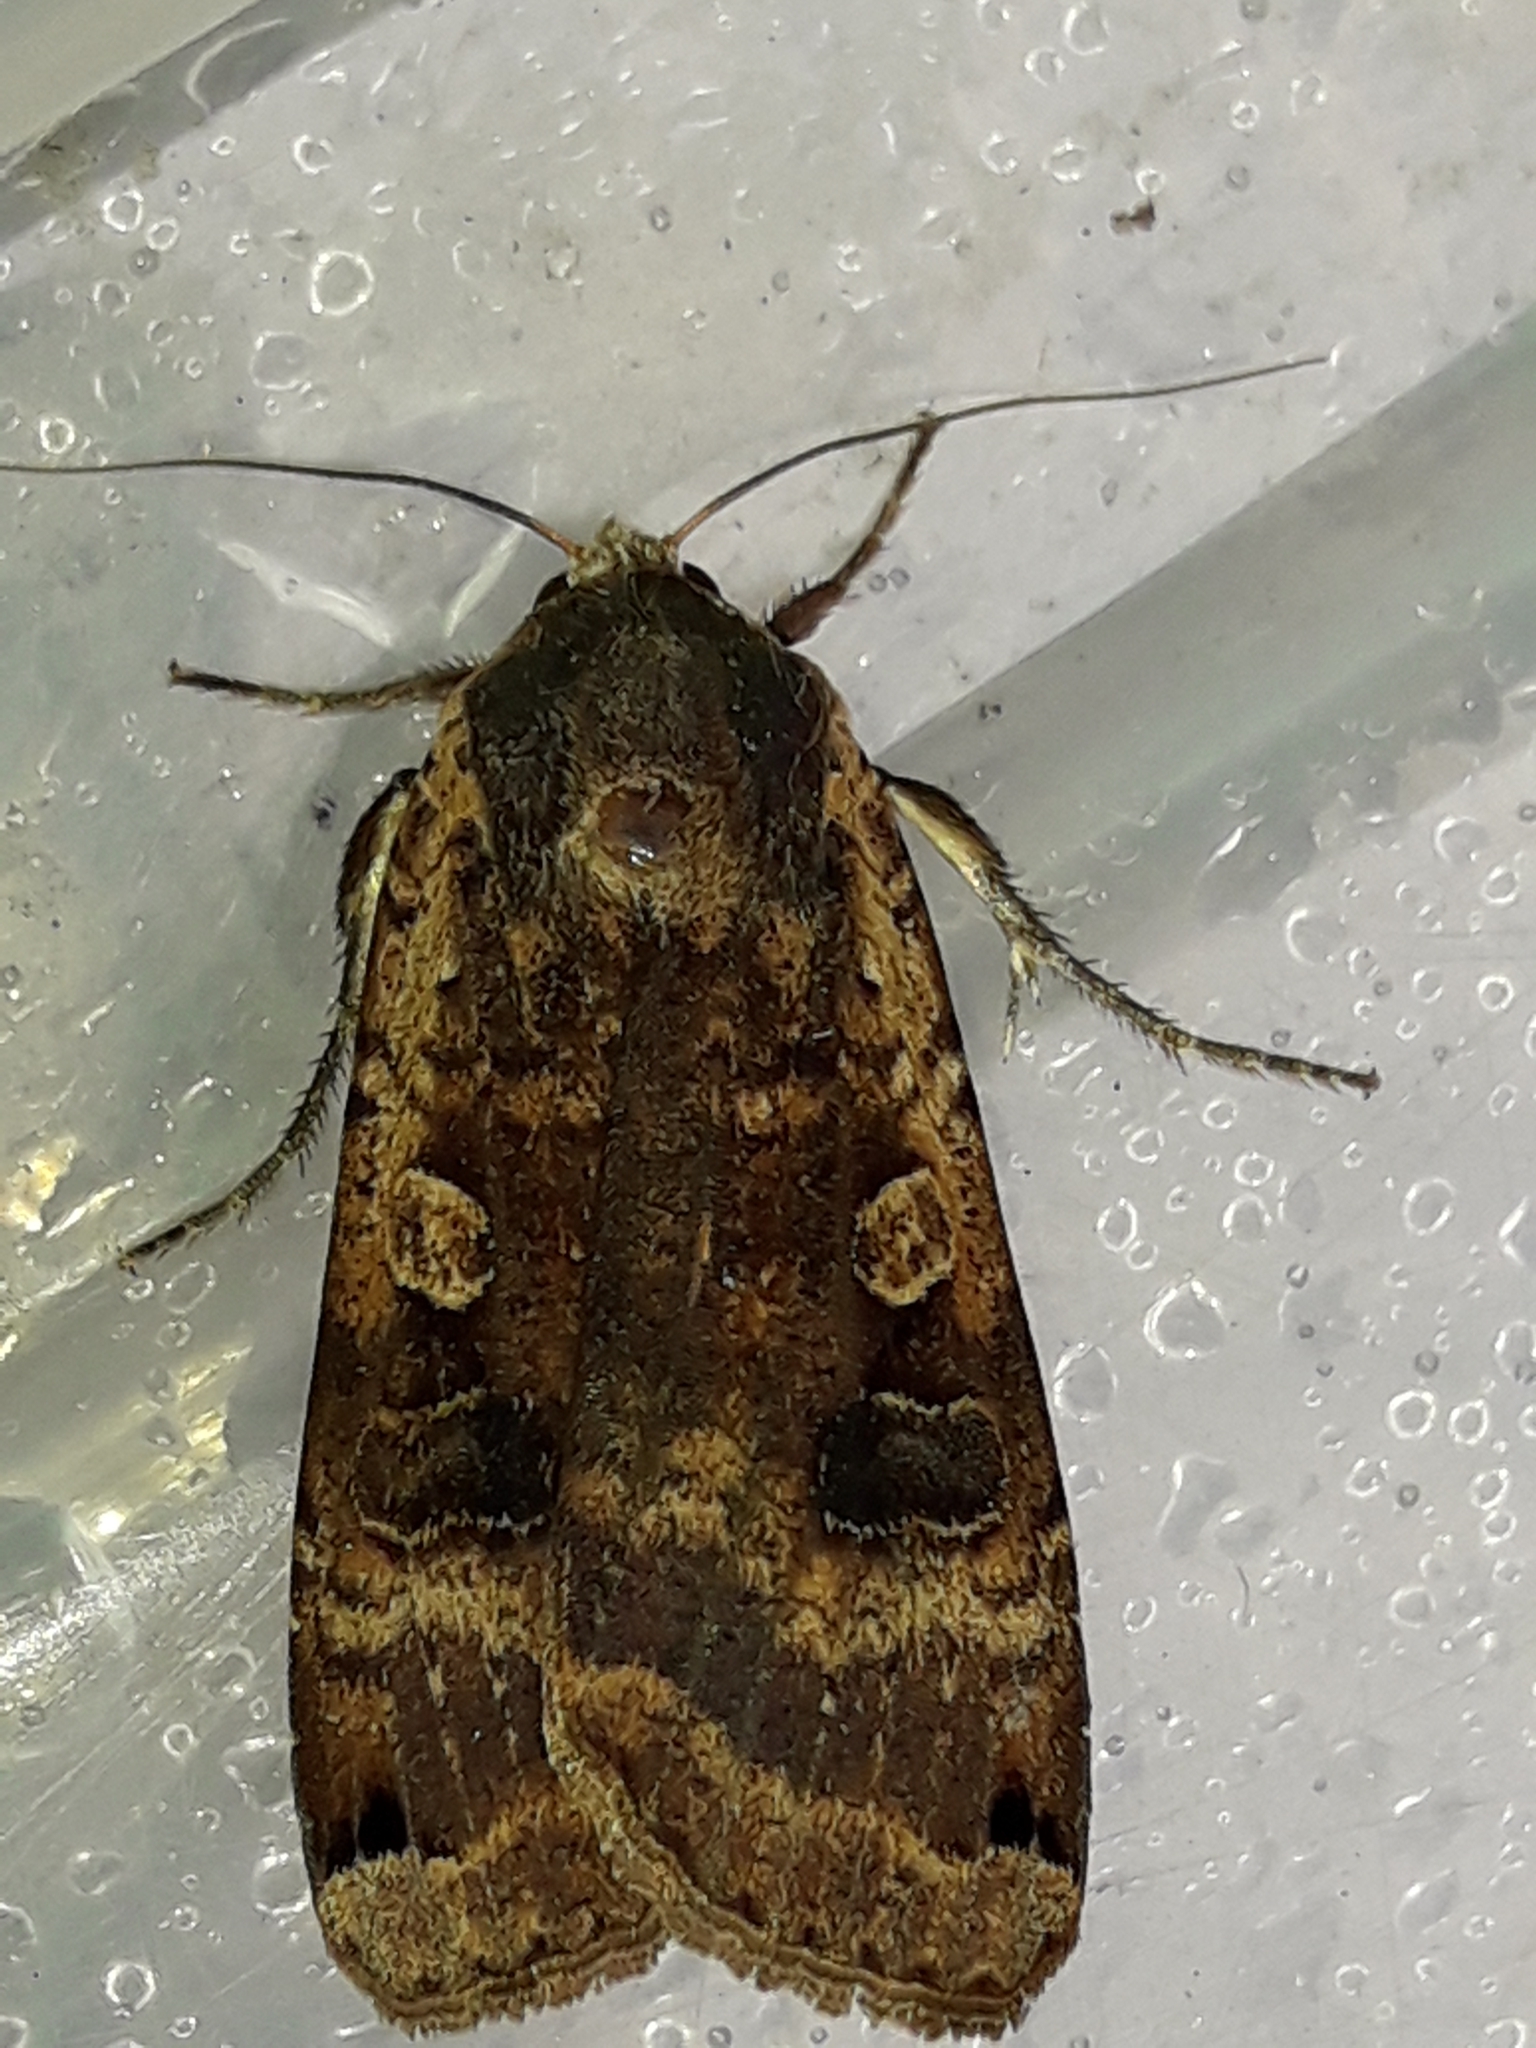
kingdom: Animalia
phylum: Arthropoda
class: Insecta
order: Lepidoptera
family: Noctuidae
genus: Noctua
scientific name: Noctua pronuba
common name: Large yellow underwing
